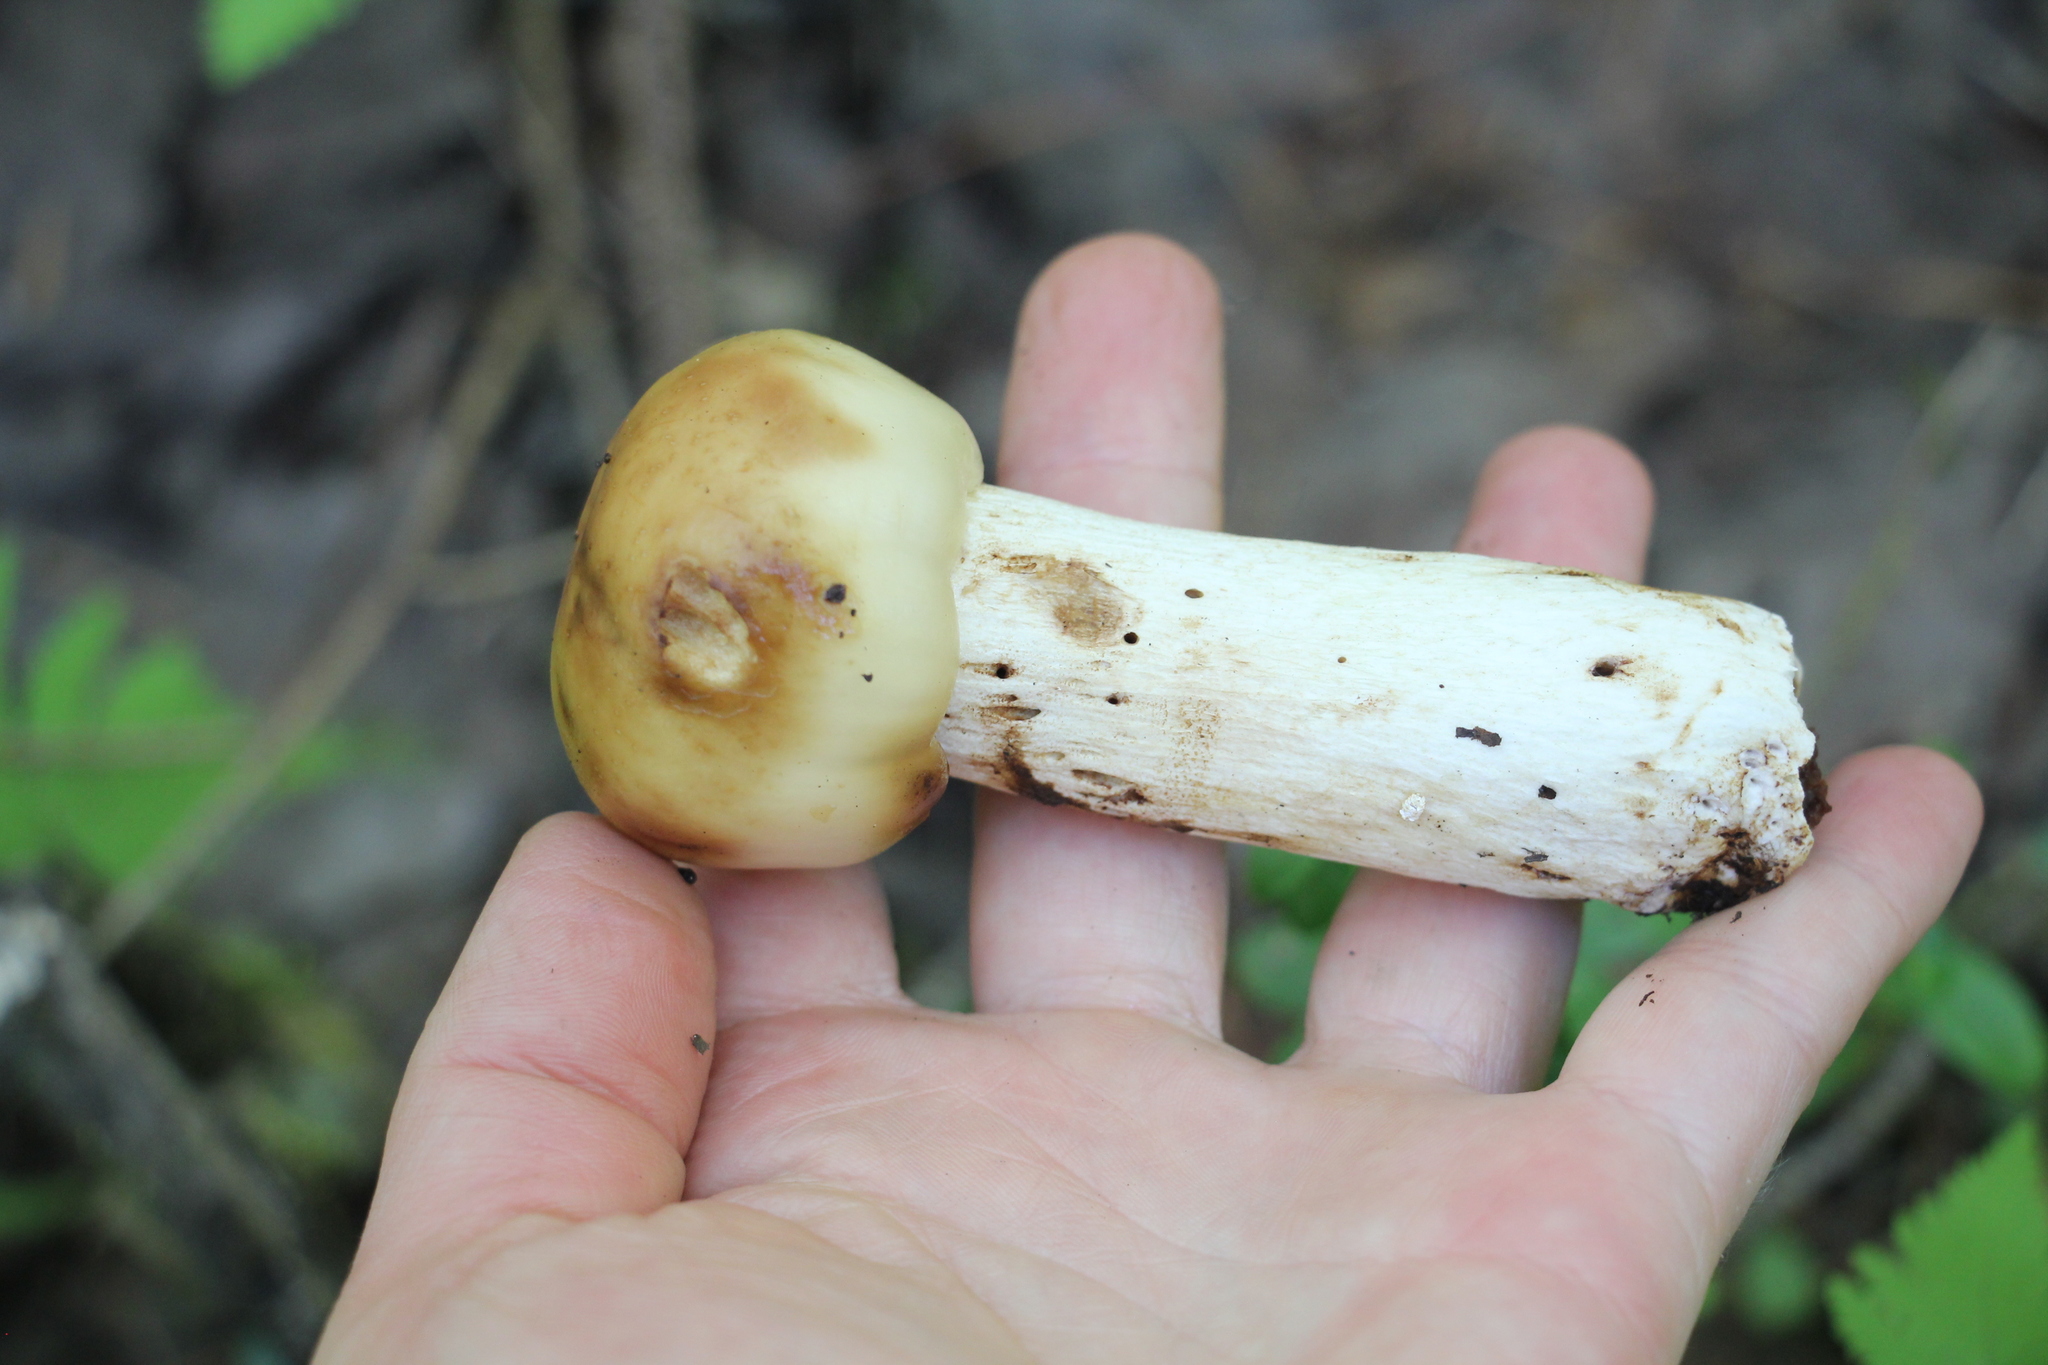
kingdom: Fungi
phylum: Basidiomycota
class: Agaricomycetes
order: Russulales
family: Russulaceae
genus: Russula
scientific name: Russula foetens
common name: Foetid russula
